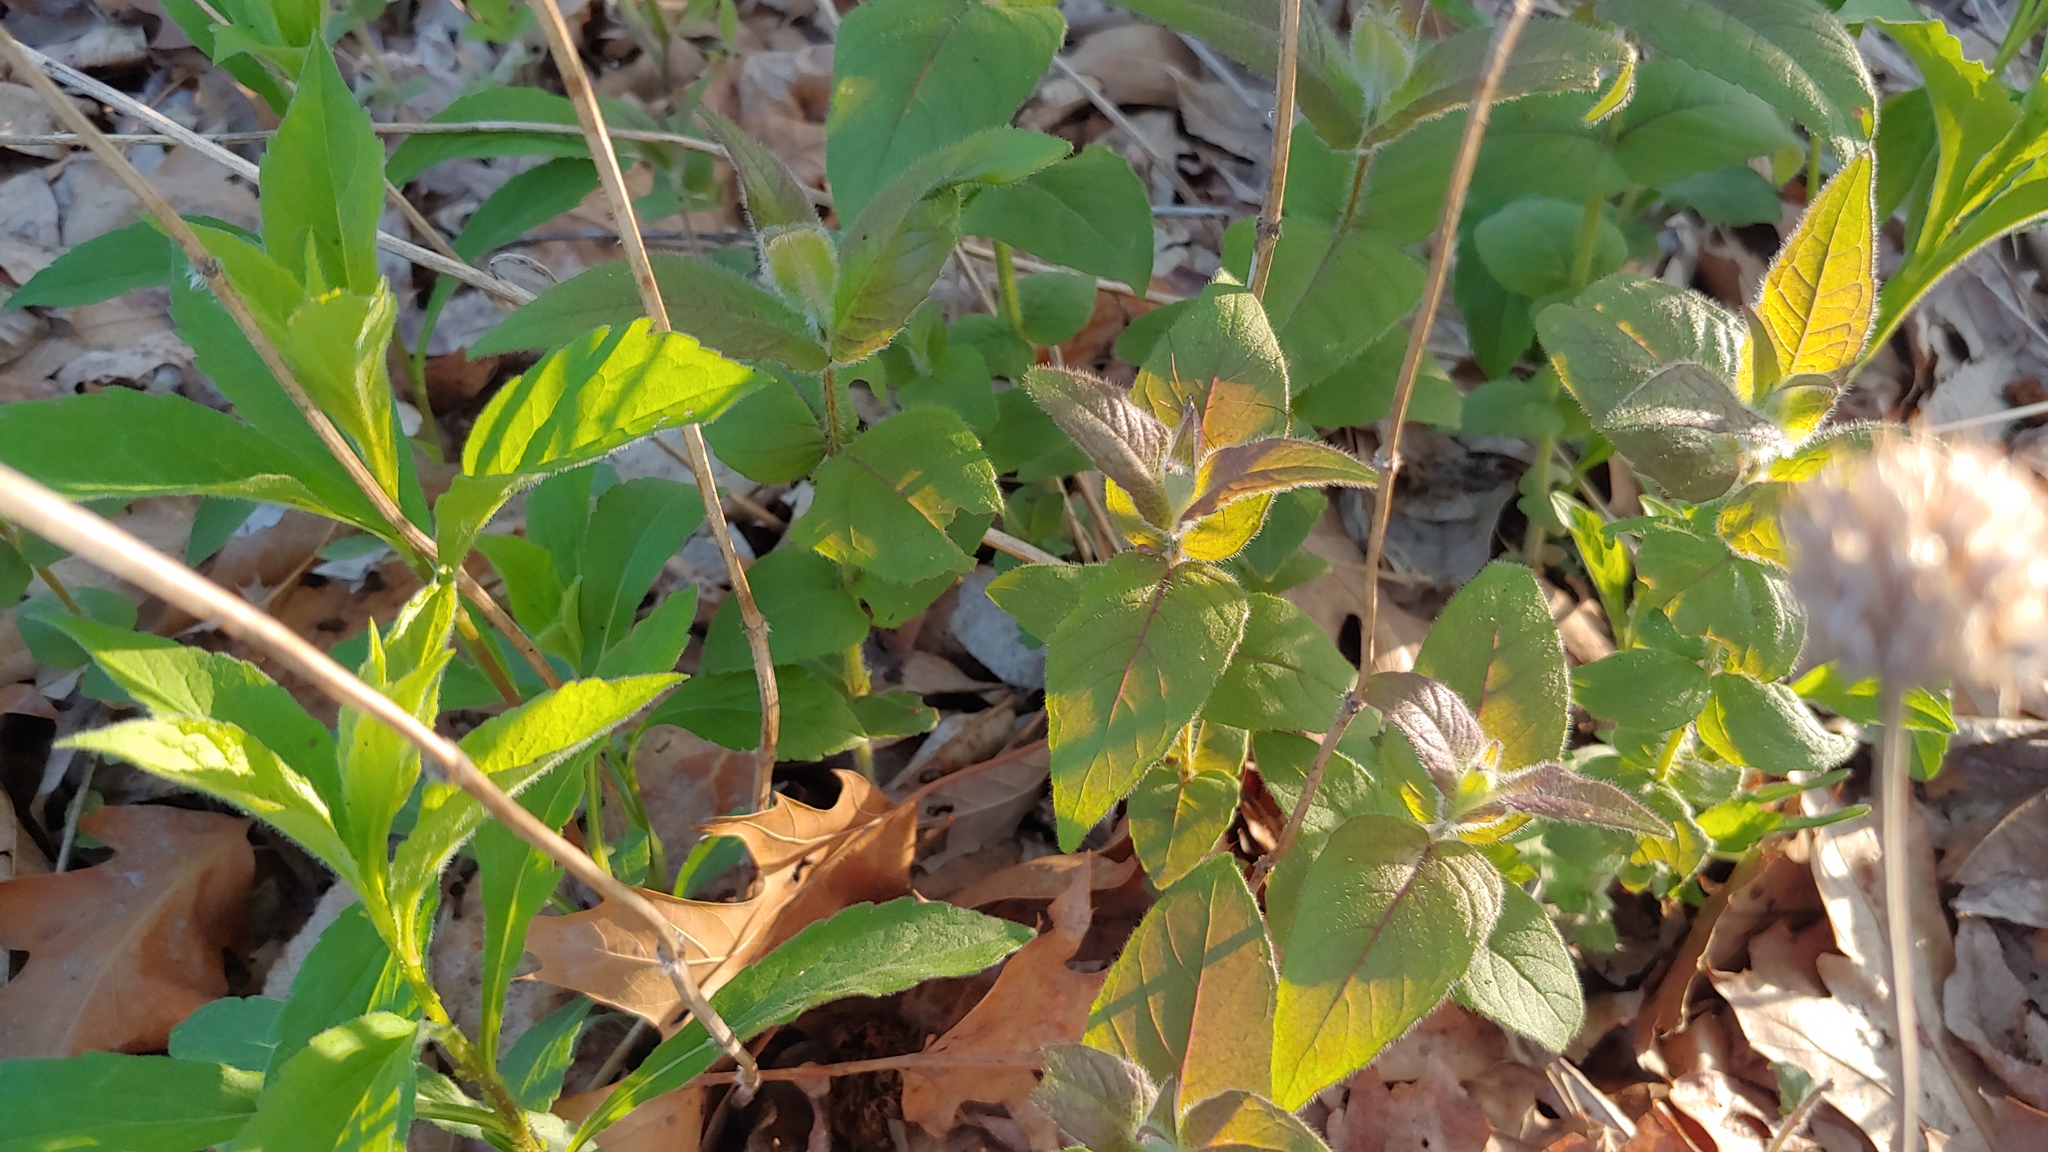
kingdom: Plantae
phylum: Tracheophyta
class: Magnoliopsida
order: Lamiales
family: Lamiaceae
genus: Monarda
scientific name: Monarda bradburiana
